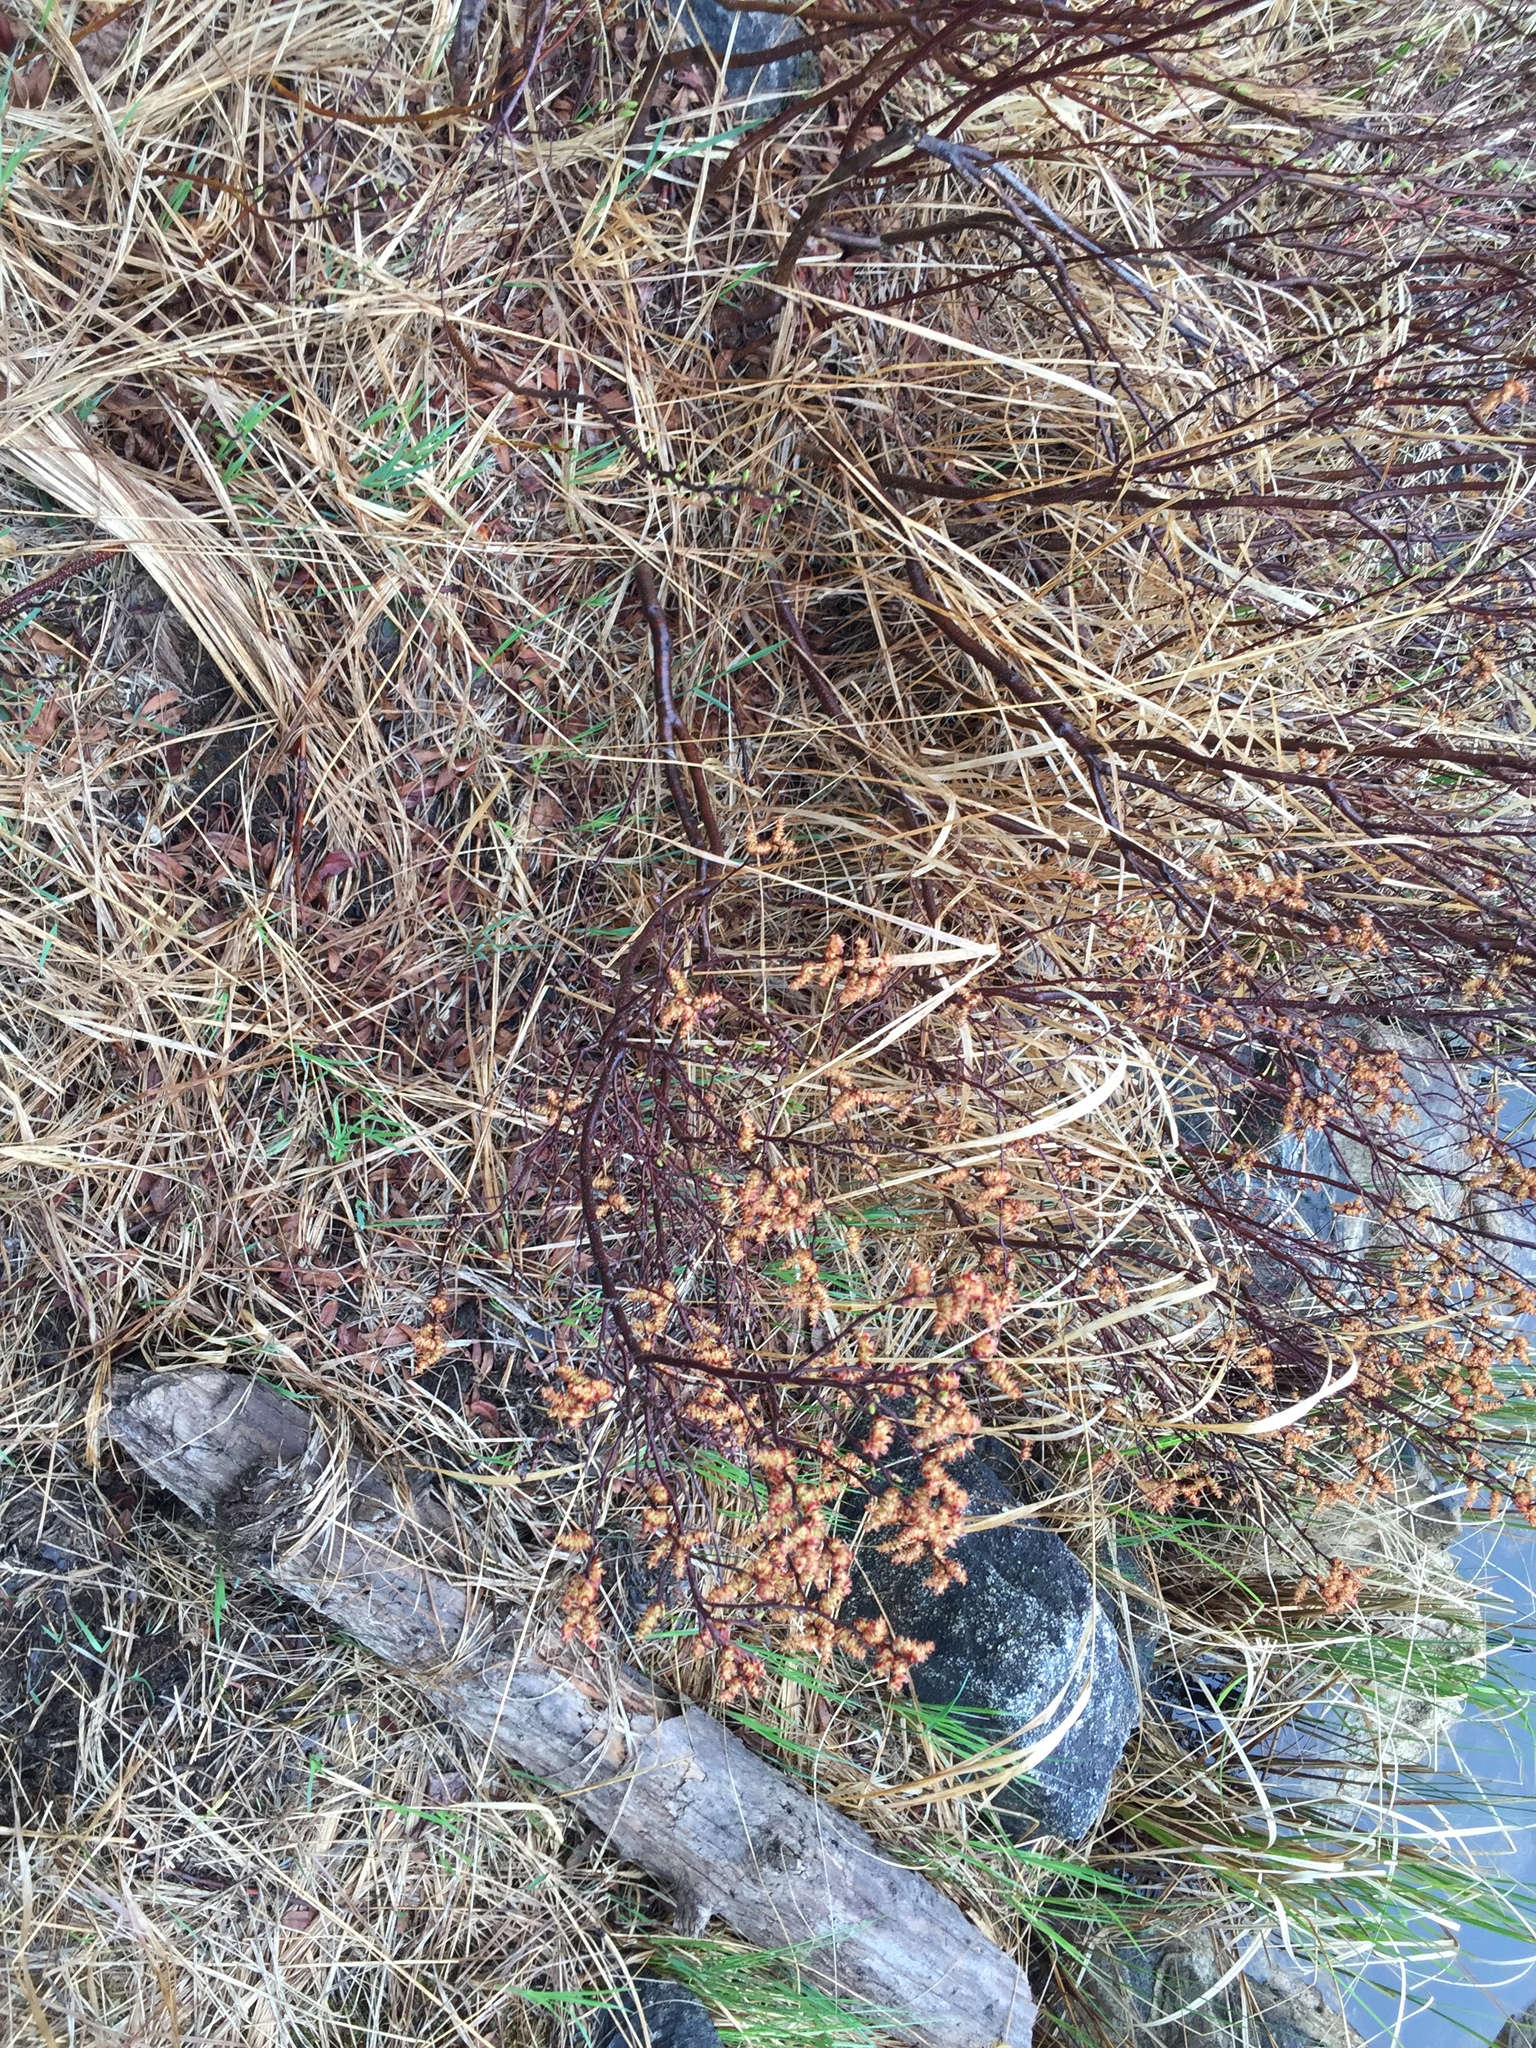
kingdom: Plantae
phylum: Tracheophyta
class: Magnoliopsida
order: Fagales
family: Myricaceae
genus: Myrica
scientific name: Myrica gale
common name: Sweet gale
